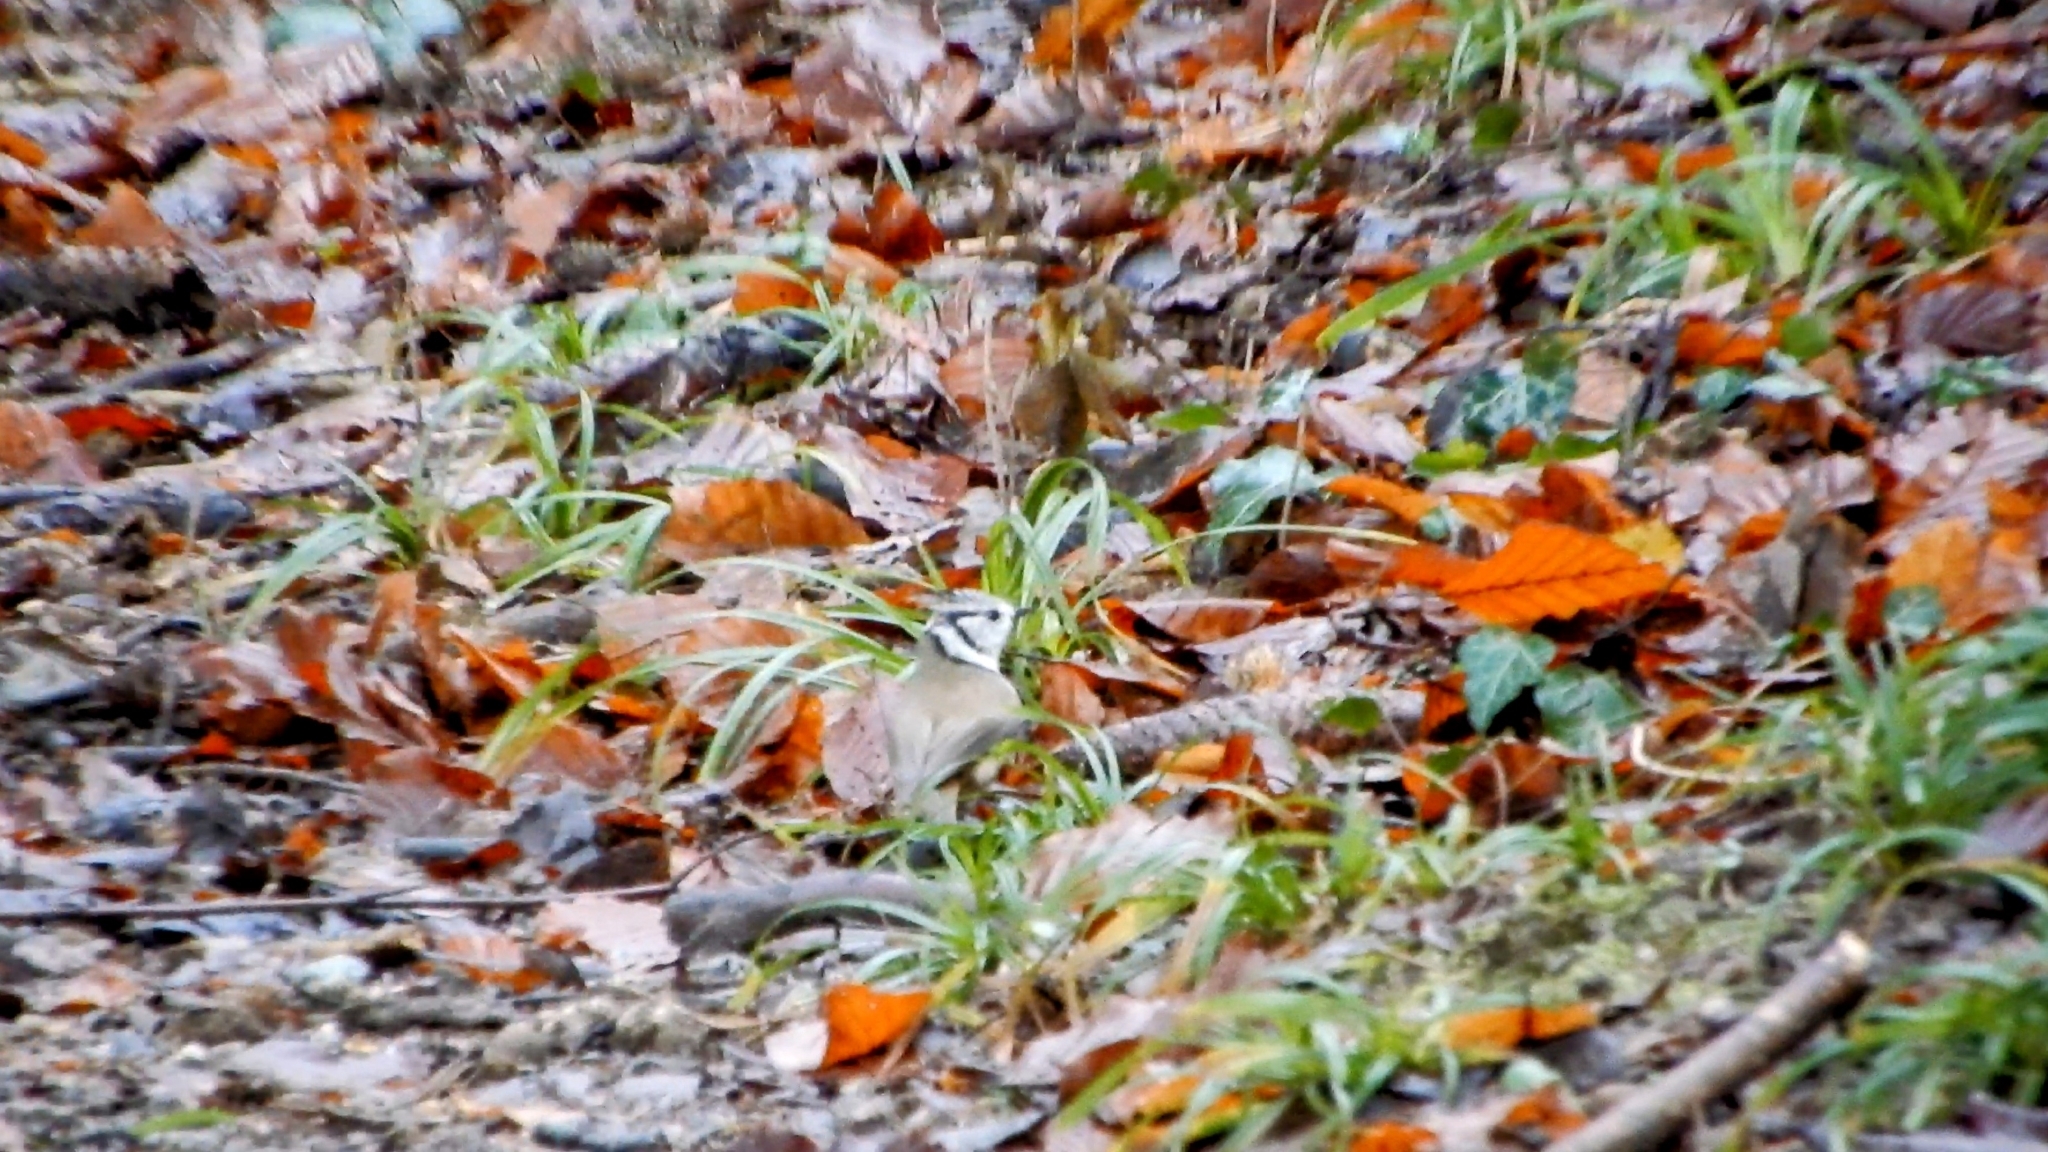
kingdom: Animalia
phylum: Chordata
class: Aves
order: Passeriformes
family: Paridae
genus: Lophophanes
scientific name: Lophophanes cristatus
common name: European crested tit
